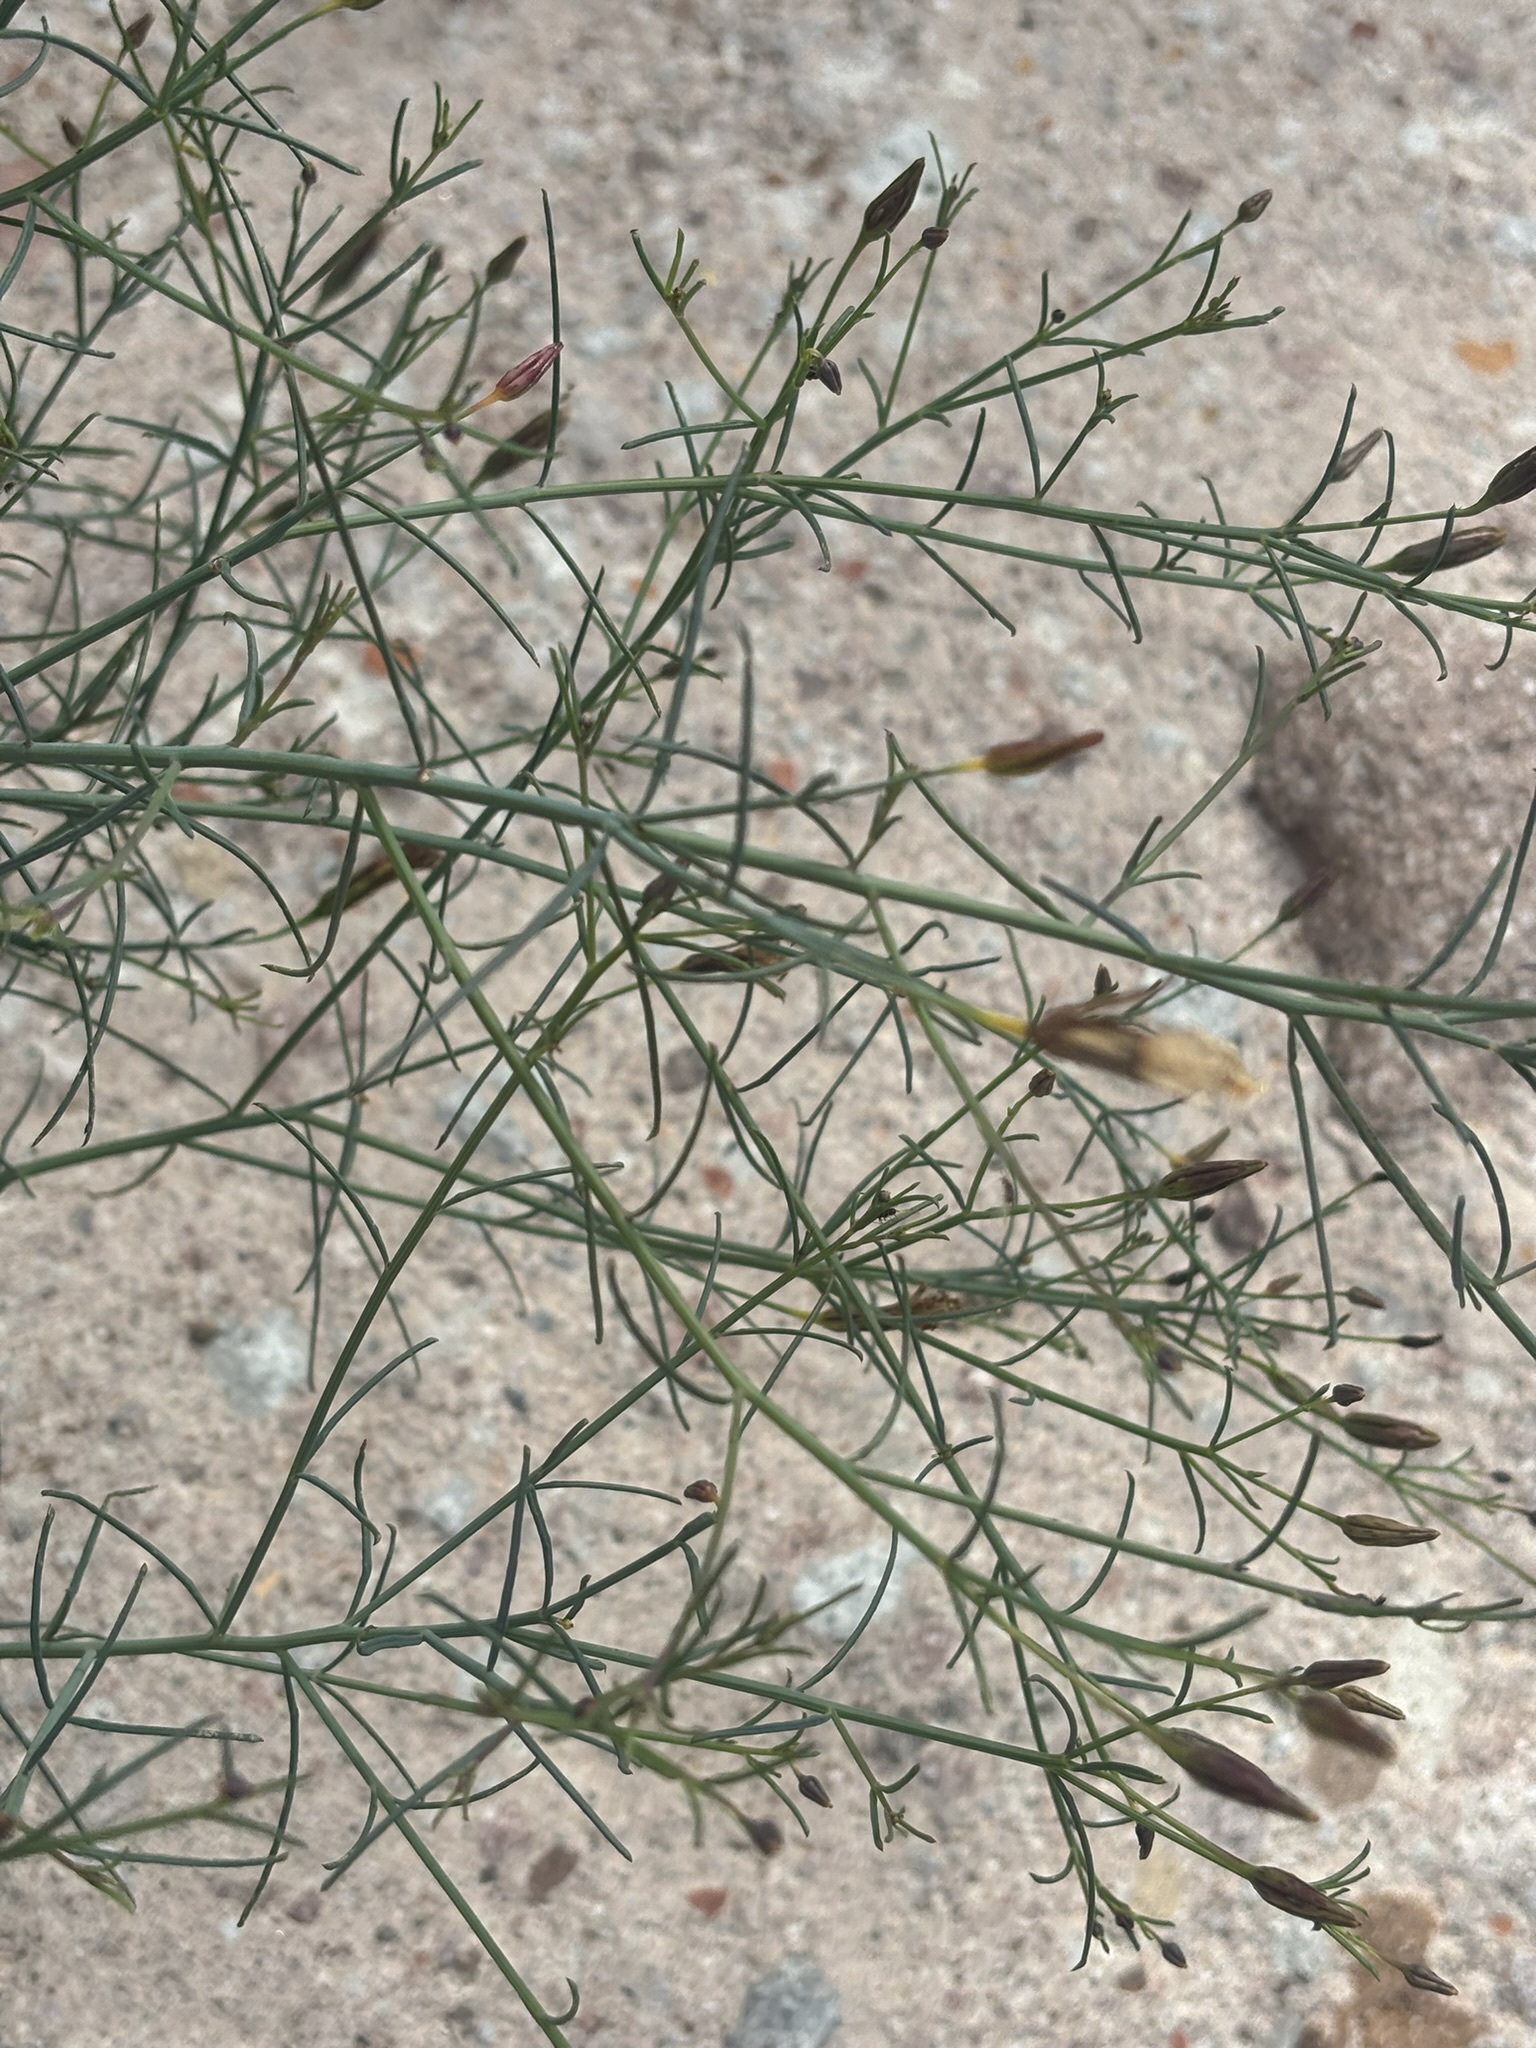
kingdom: Plantae
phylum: Tracheophyta
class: Magnoliopsida
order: Asterales
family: Asteraceae
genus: Porophyllum
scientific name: Porophyllum gracile
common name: Odora
